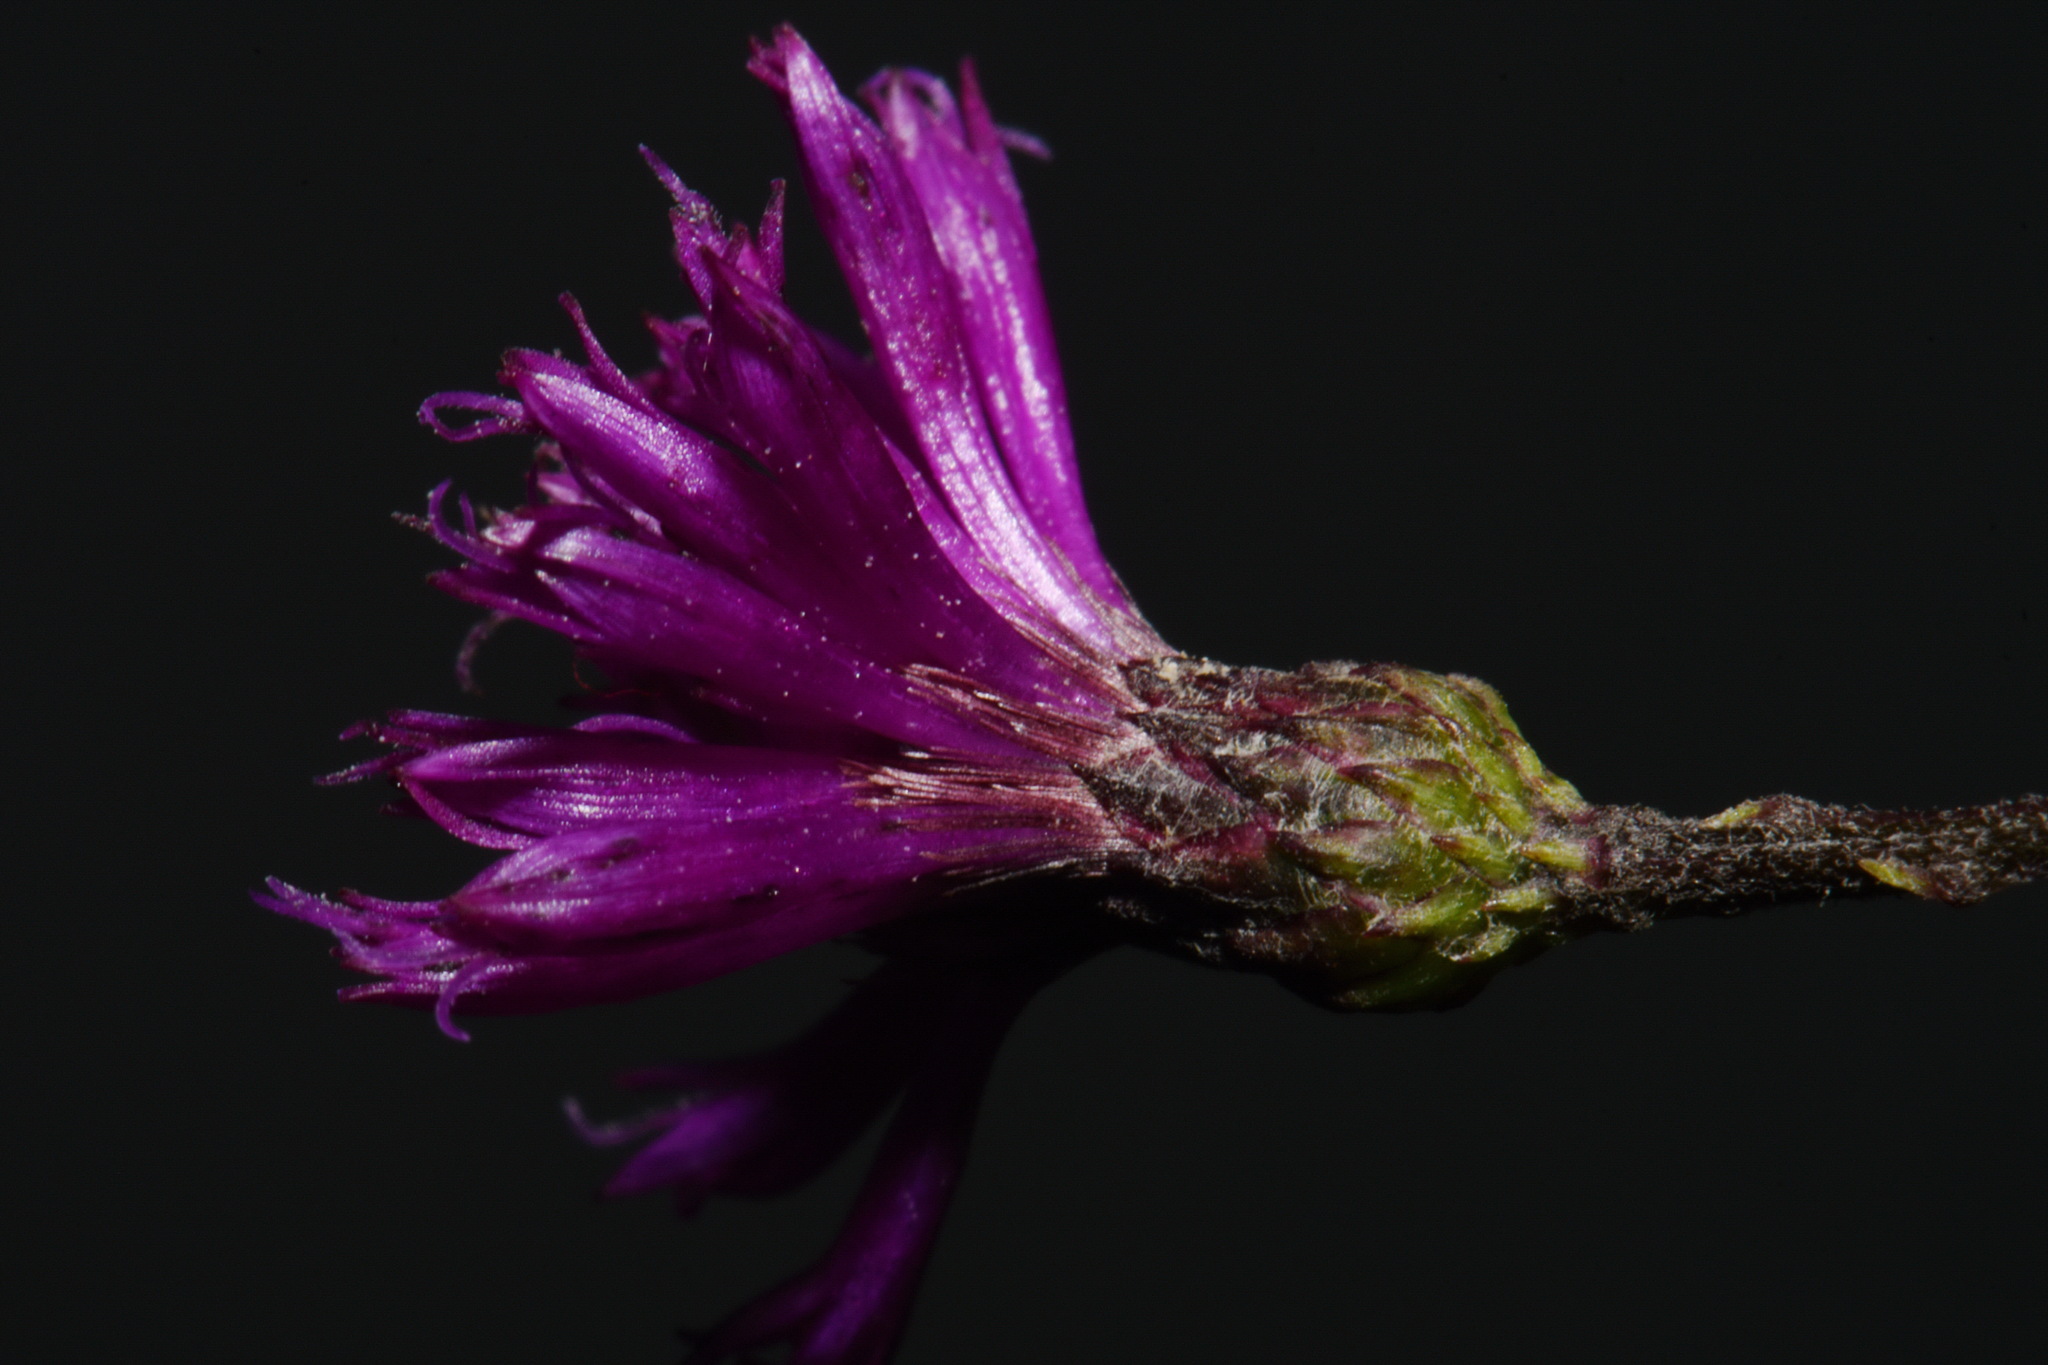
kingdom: Plantae
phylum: Tracheophyta
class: Magnoliopsida
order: Asterales
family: Asteraceae
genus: Vernonia
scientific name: Vernonia noveboracensis
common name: New york ironweed
